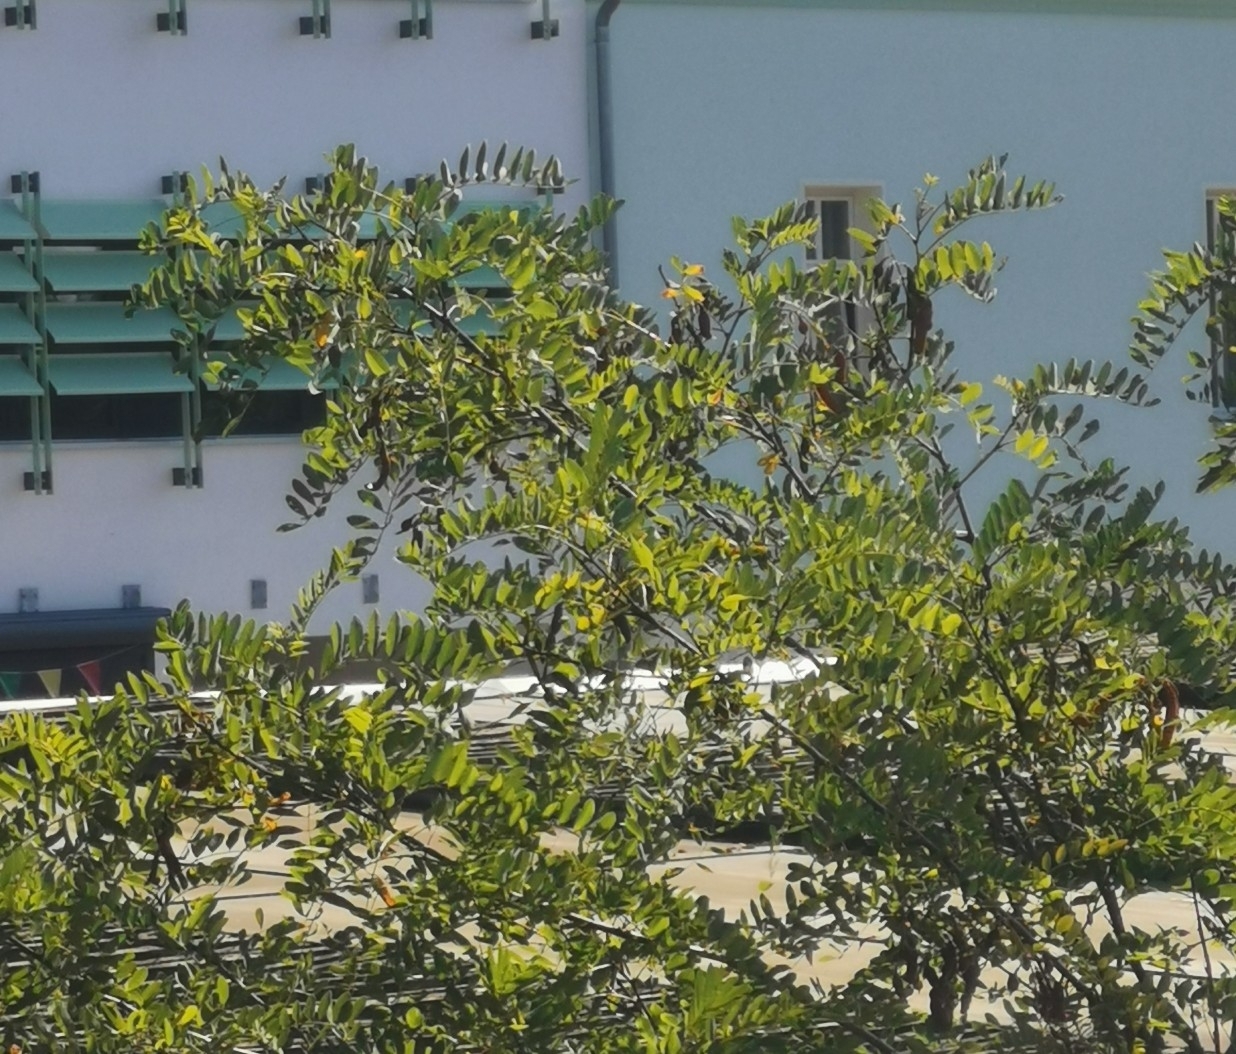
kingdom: Plantae
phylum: Tracheophyta
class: Magnoliopsida
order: Fabales
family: Fabaceae
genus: Robinia
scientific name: Robinia pseudoacacia
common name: Black locust
